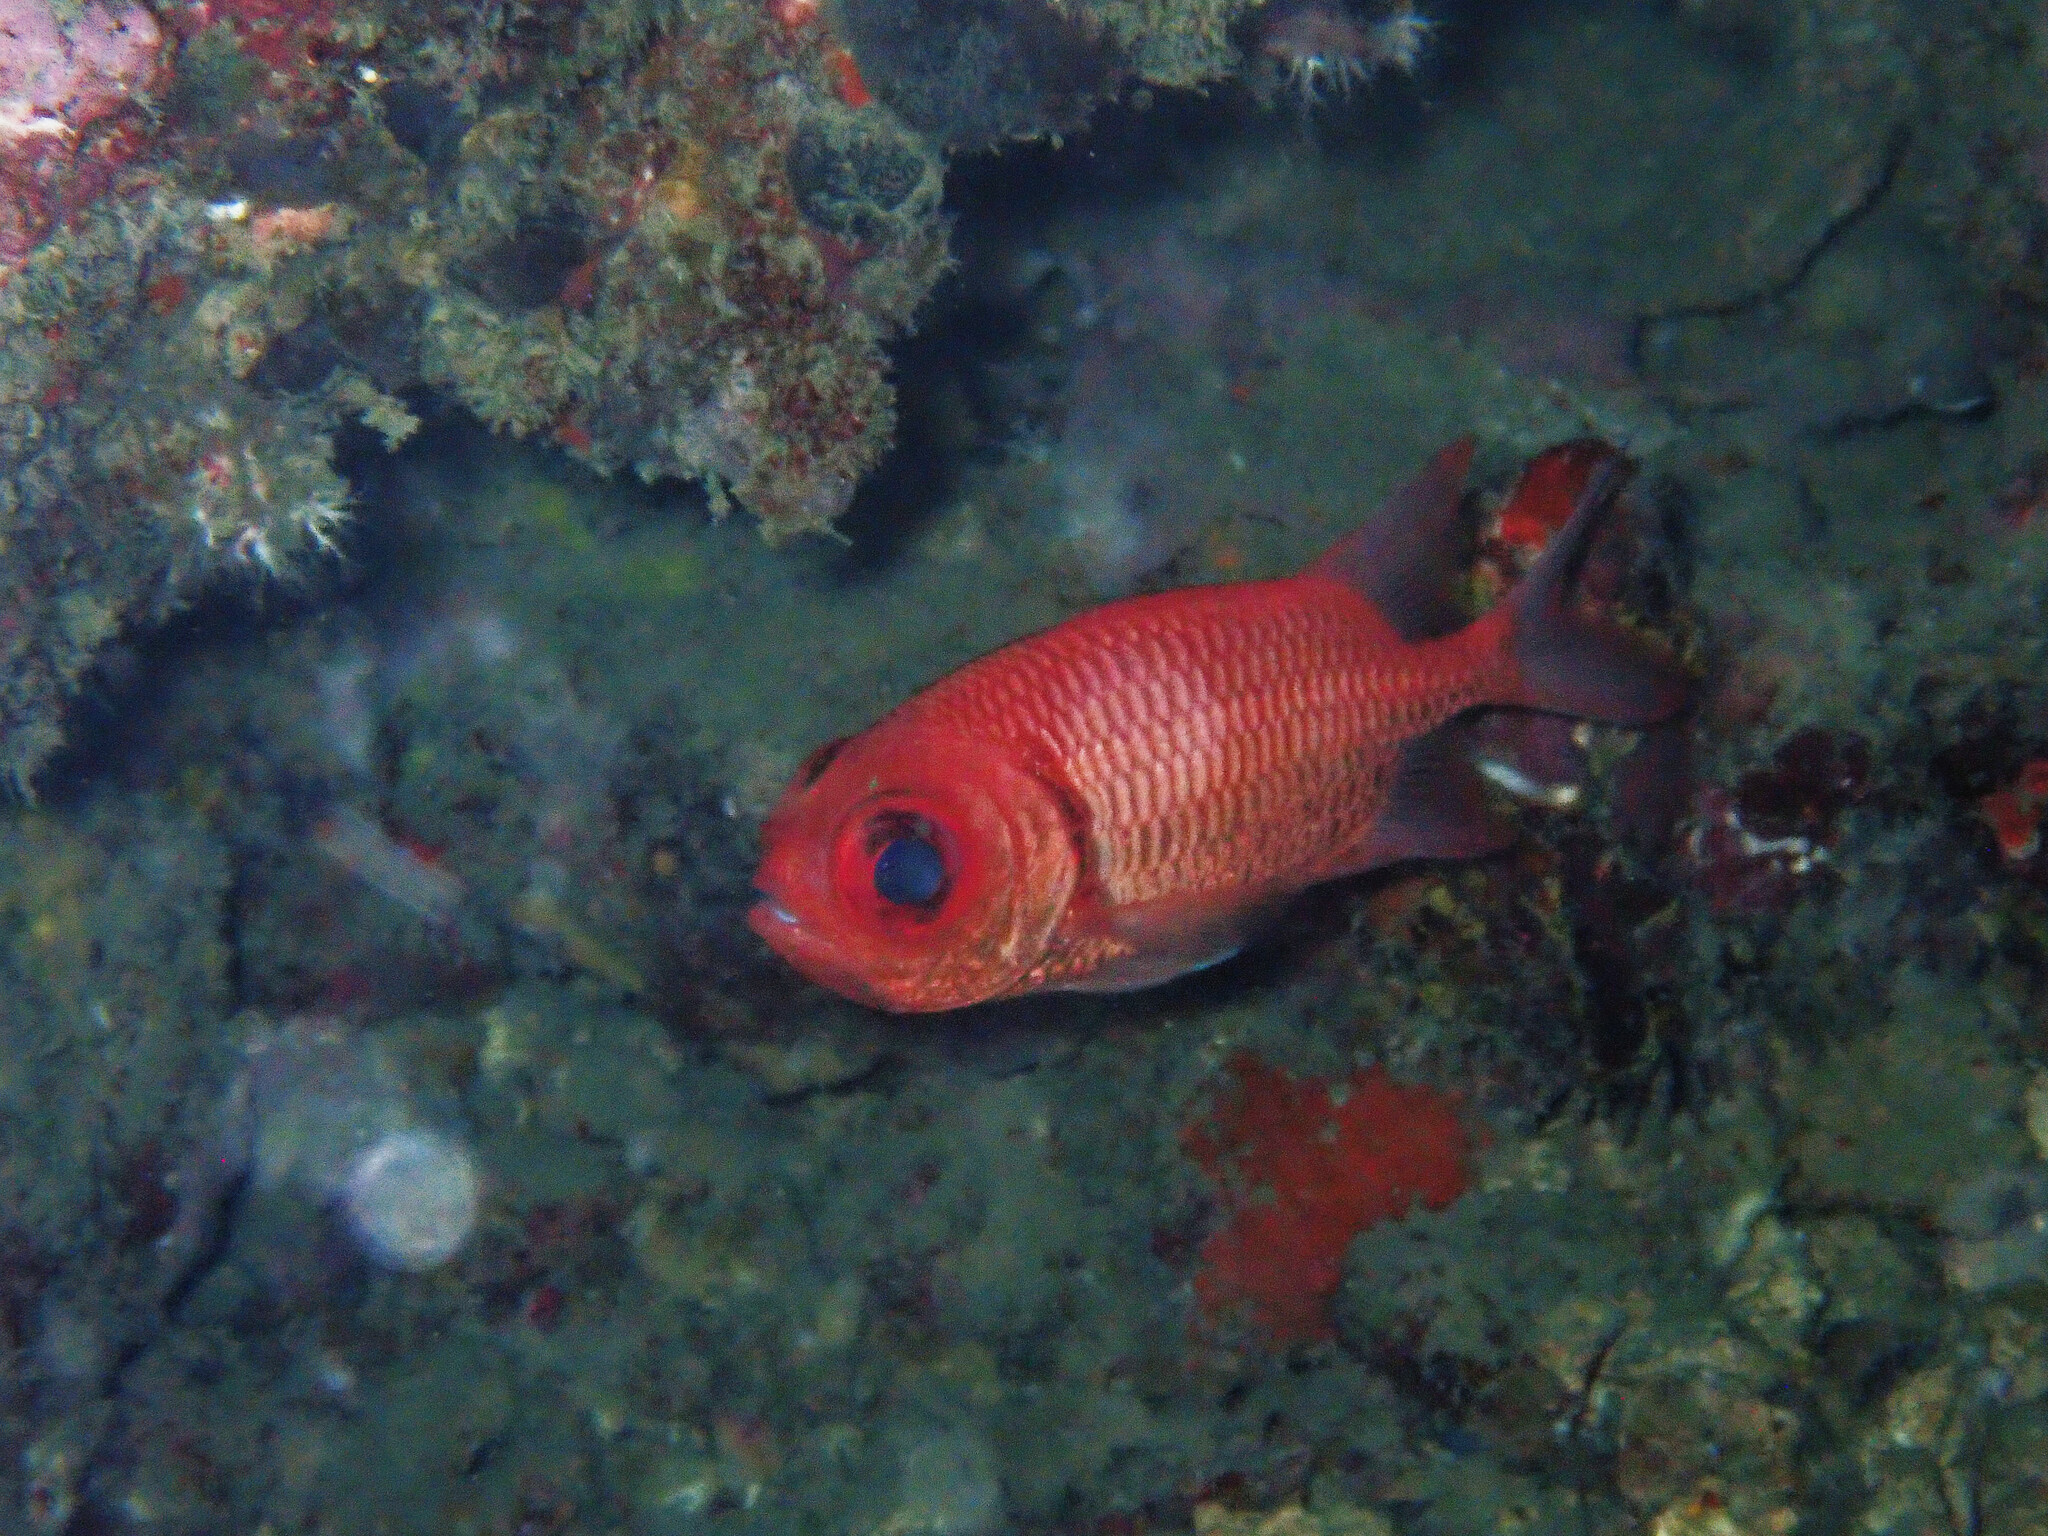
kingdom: Animalia
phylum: Chordata
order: Beryciformes
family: Holocentridae
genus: Myripristis
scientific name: Myripristis hexagona
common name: Blacktip soldierfish
